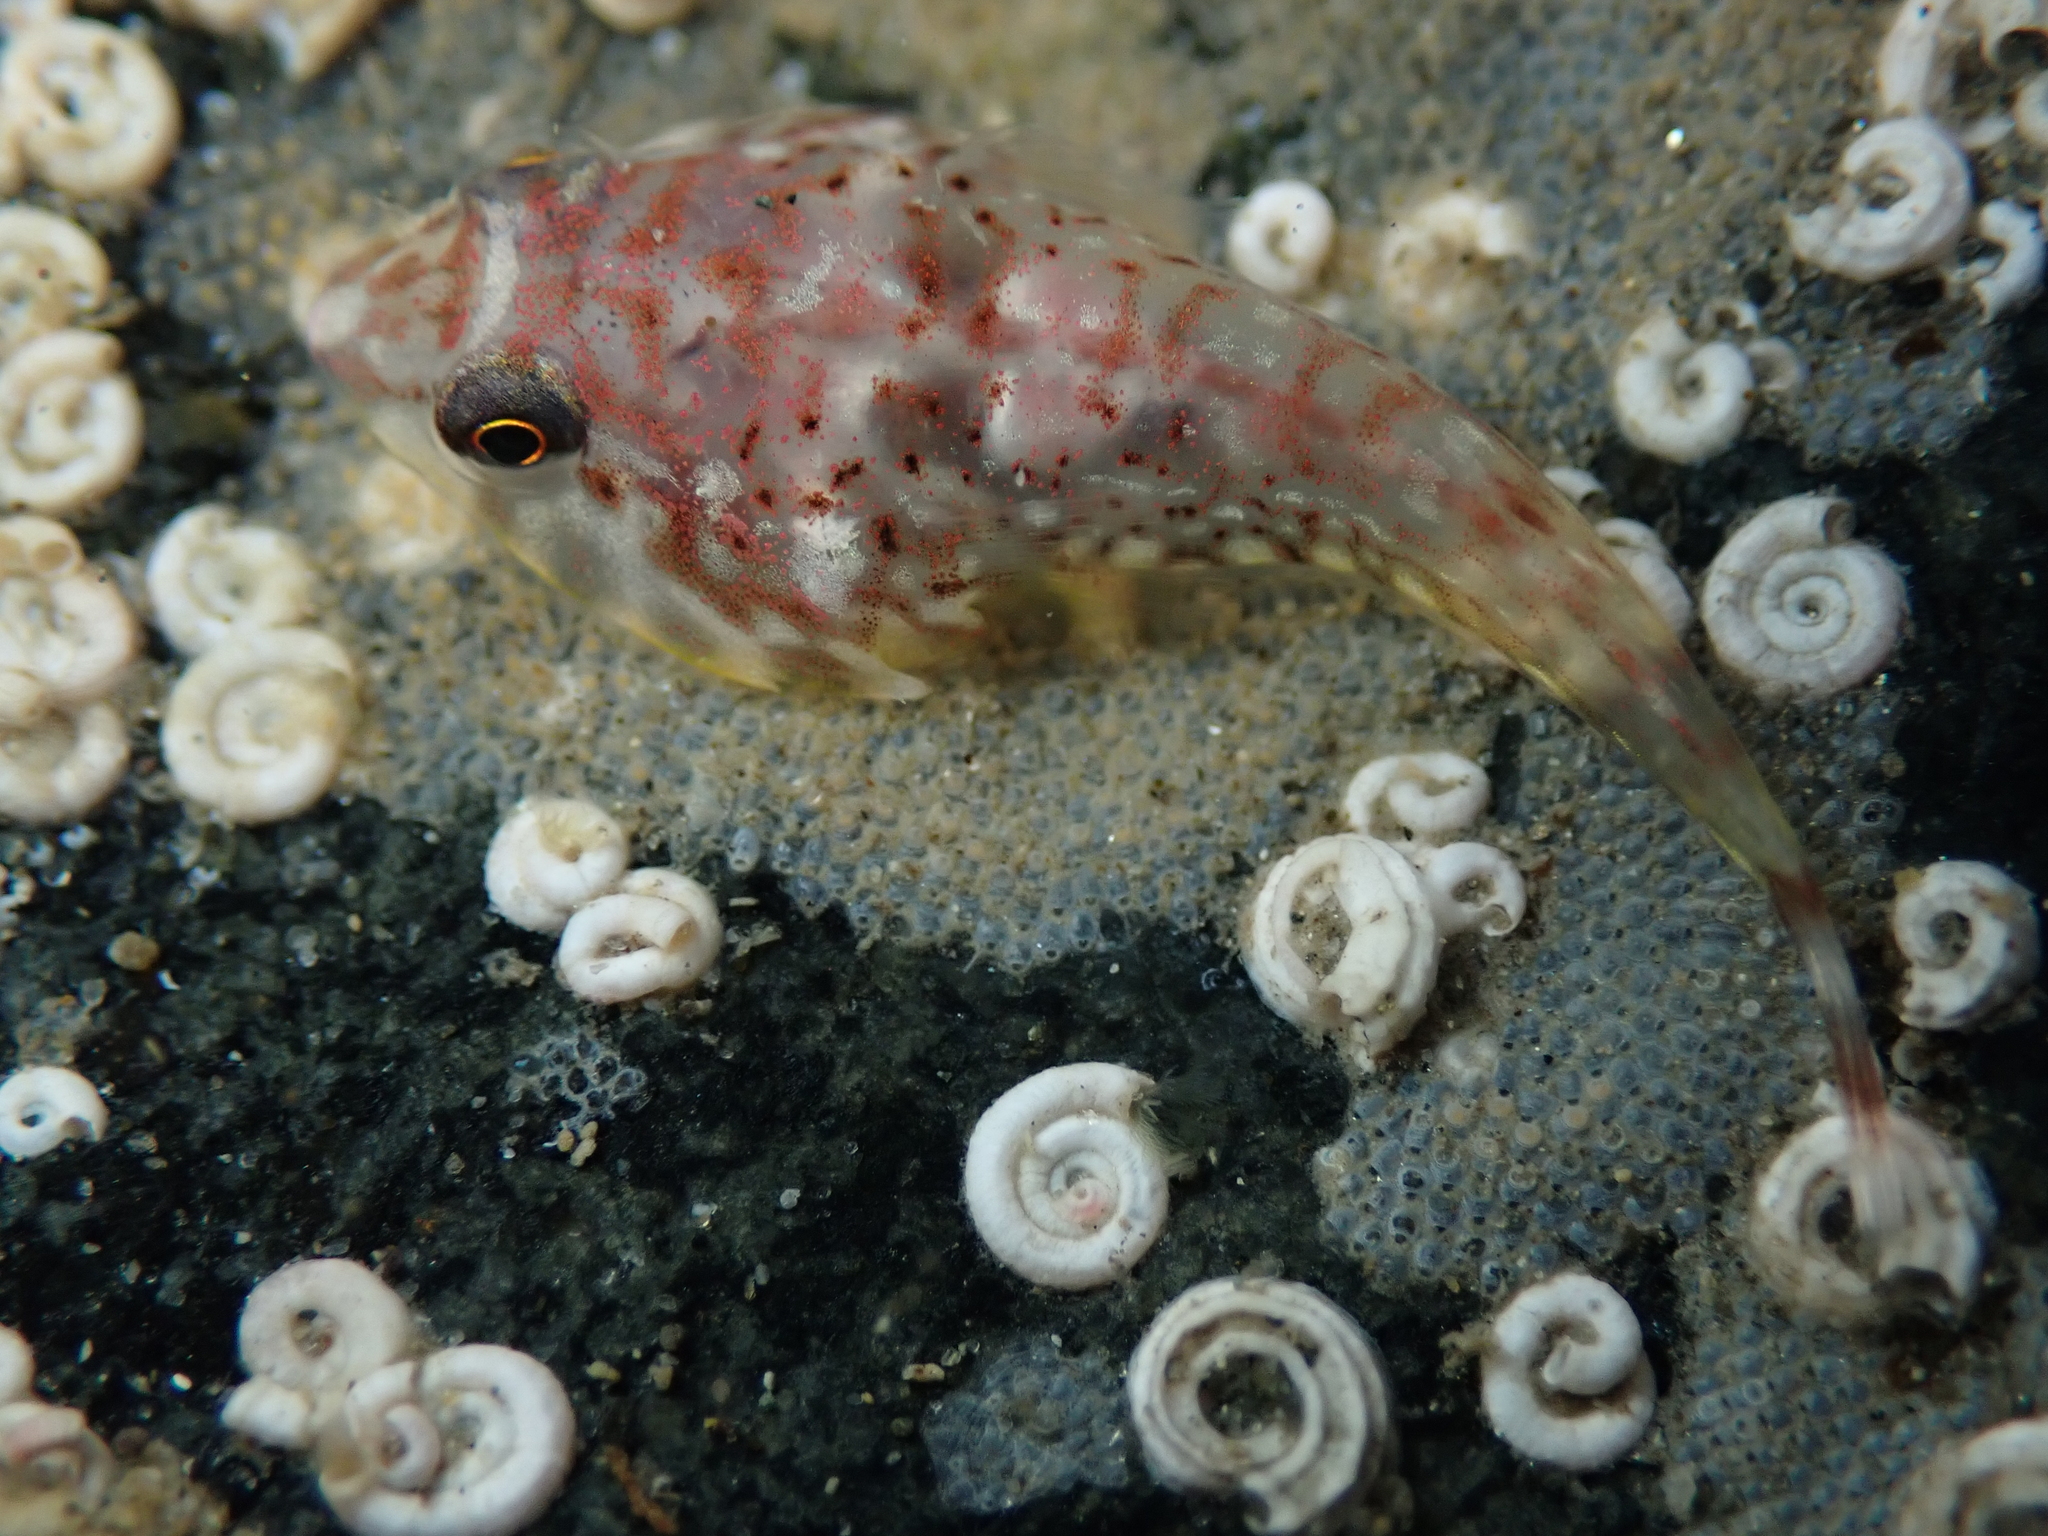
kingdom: Animalia
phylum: Chordata
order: Gobiesociformes
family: Gobiesocidae
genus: Diplocrepis
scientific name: Diplocrepis puniceus
